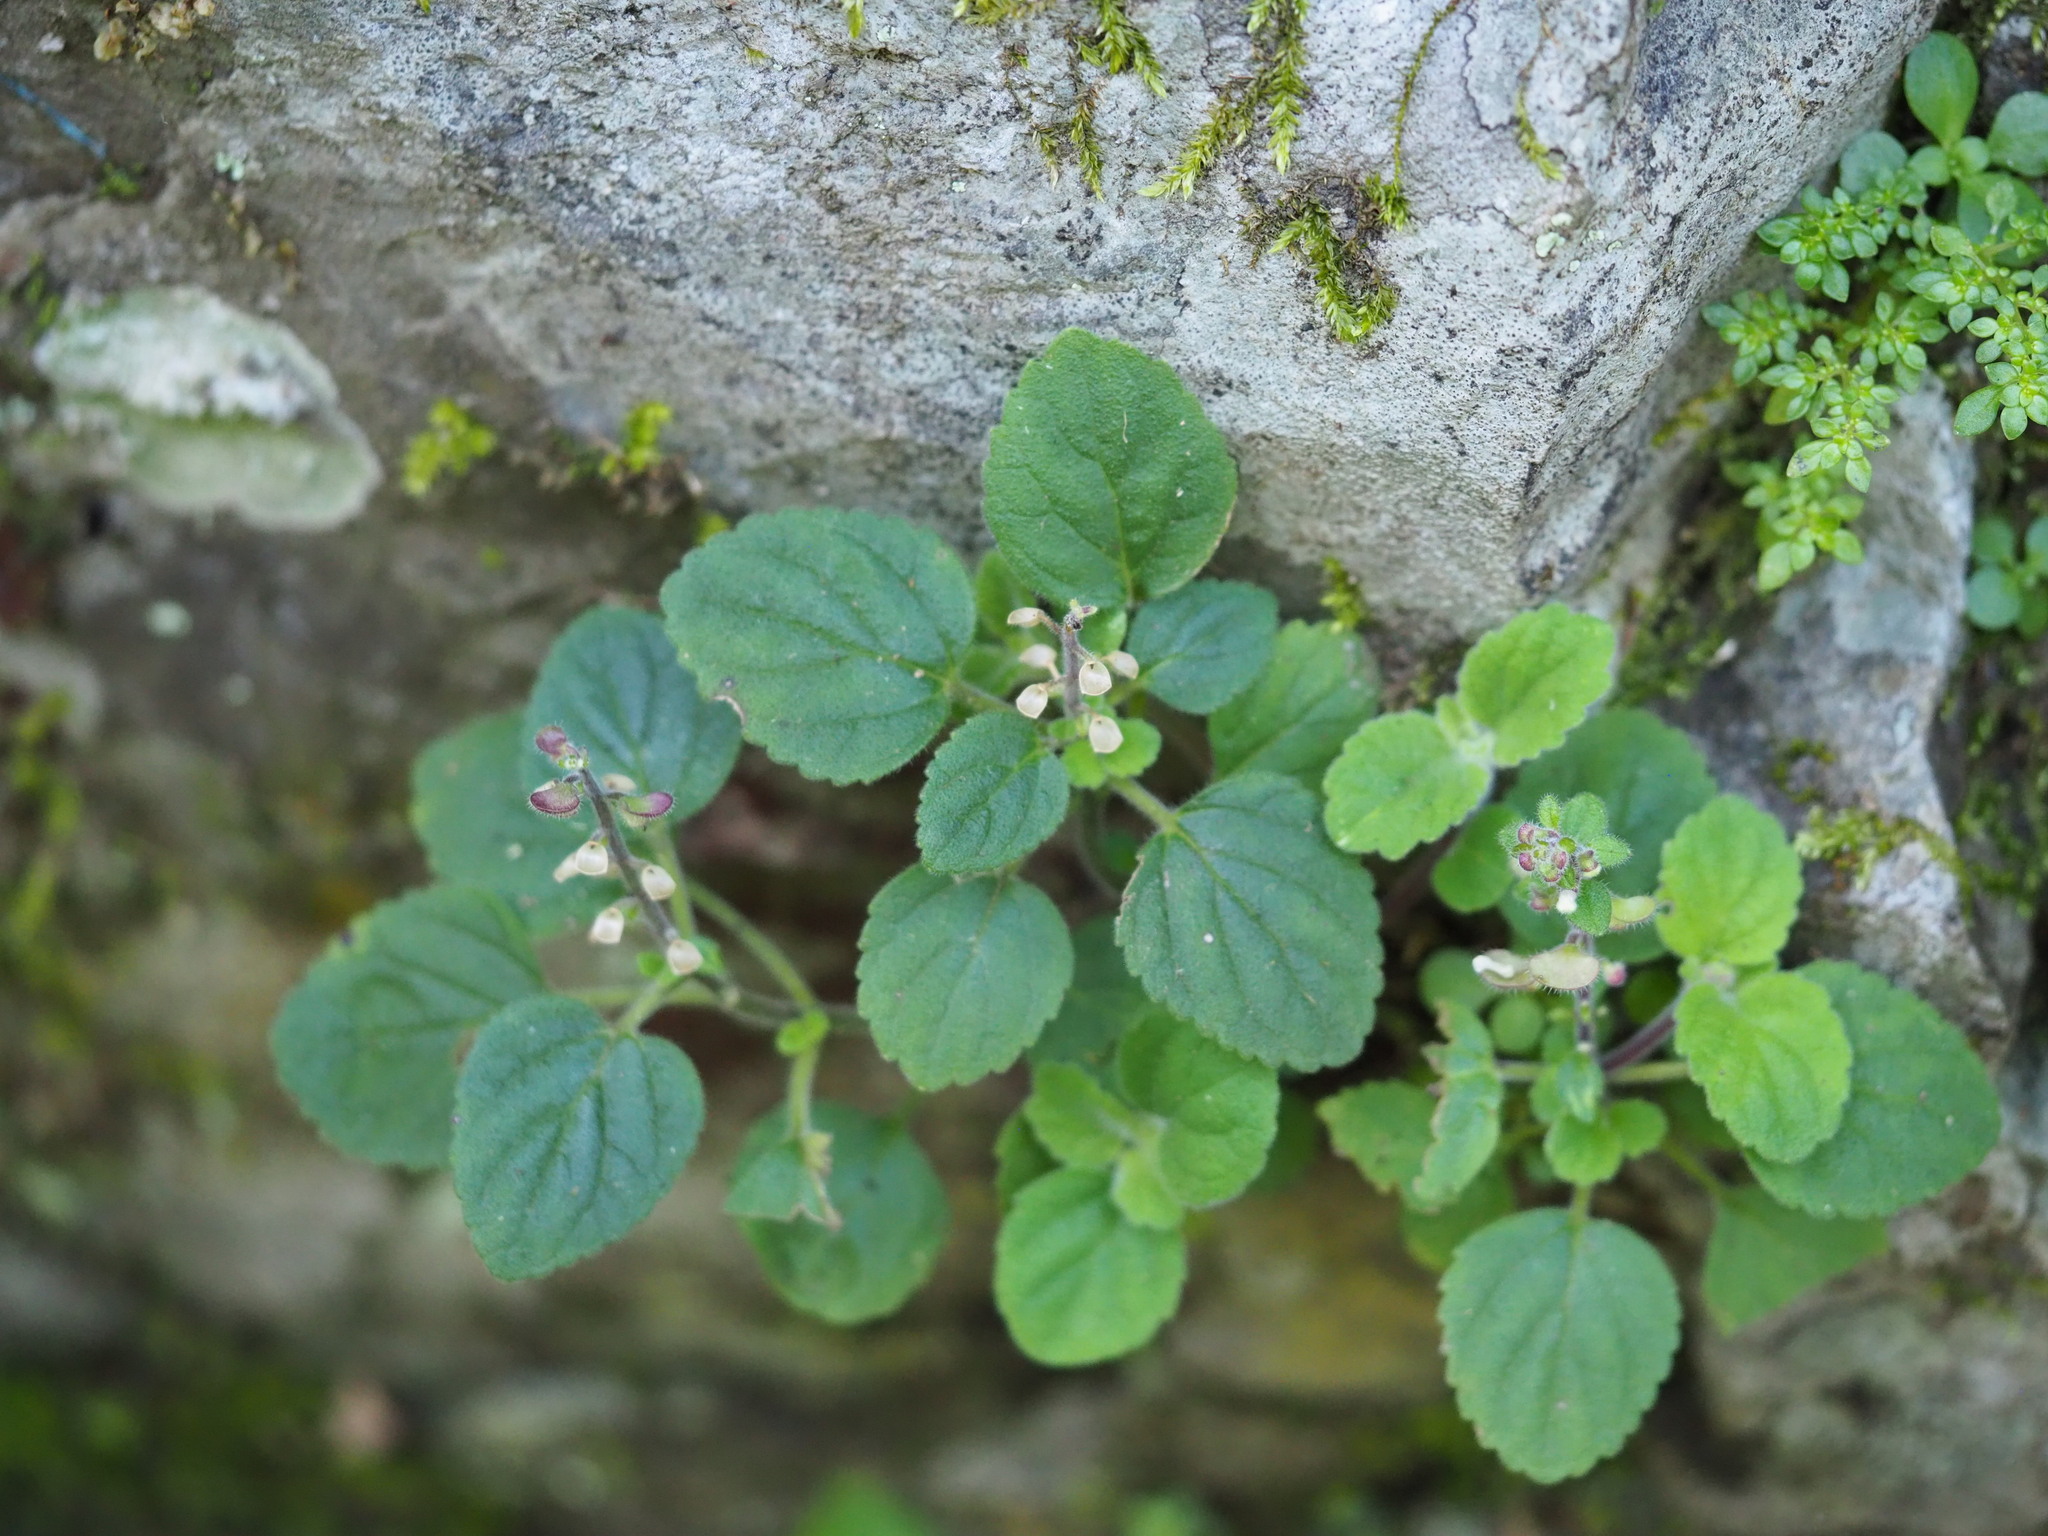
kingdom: Plantae
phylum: Tracheophyta
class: Magnoliopsida
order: Lamiales
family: Lamiaceae
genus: Scutellaria
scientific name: Scutellaria indica
